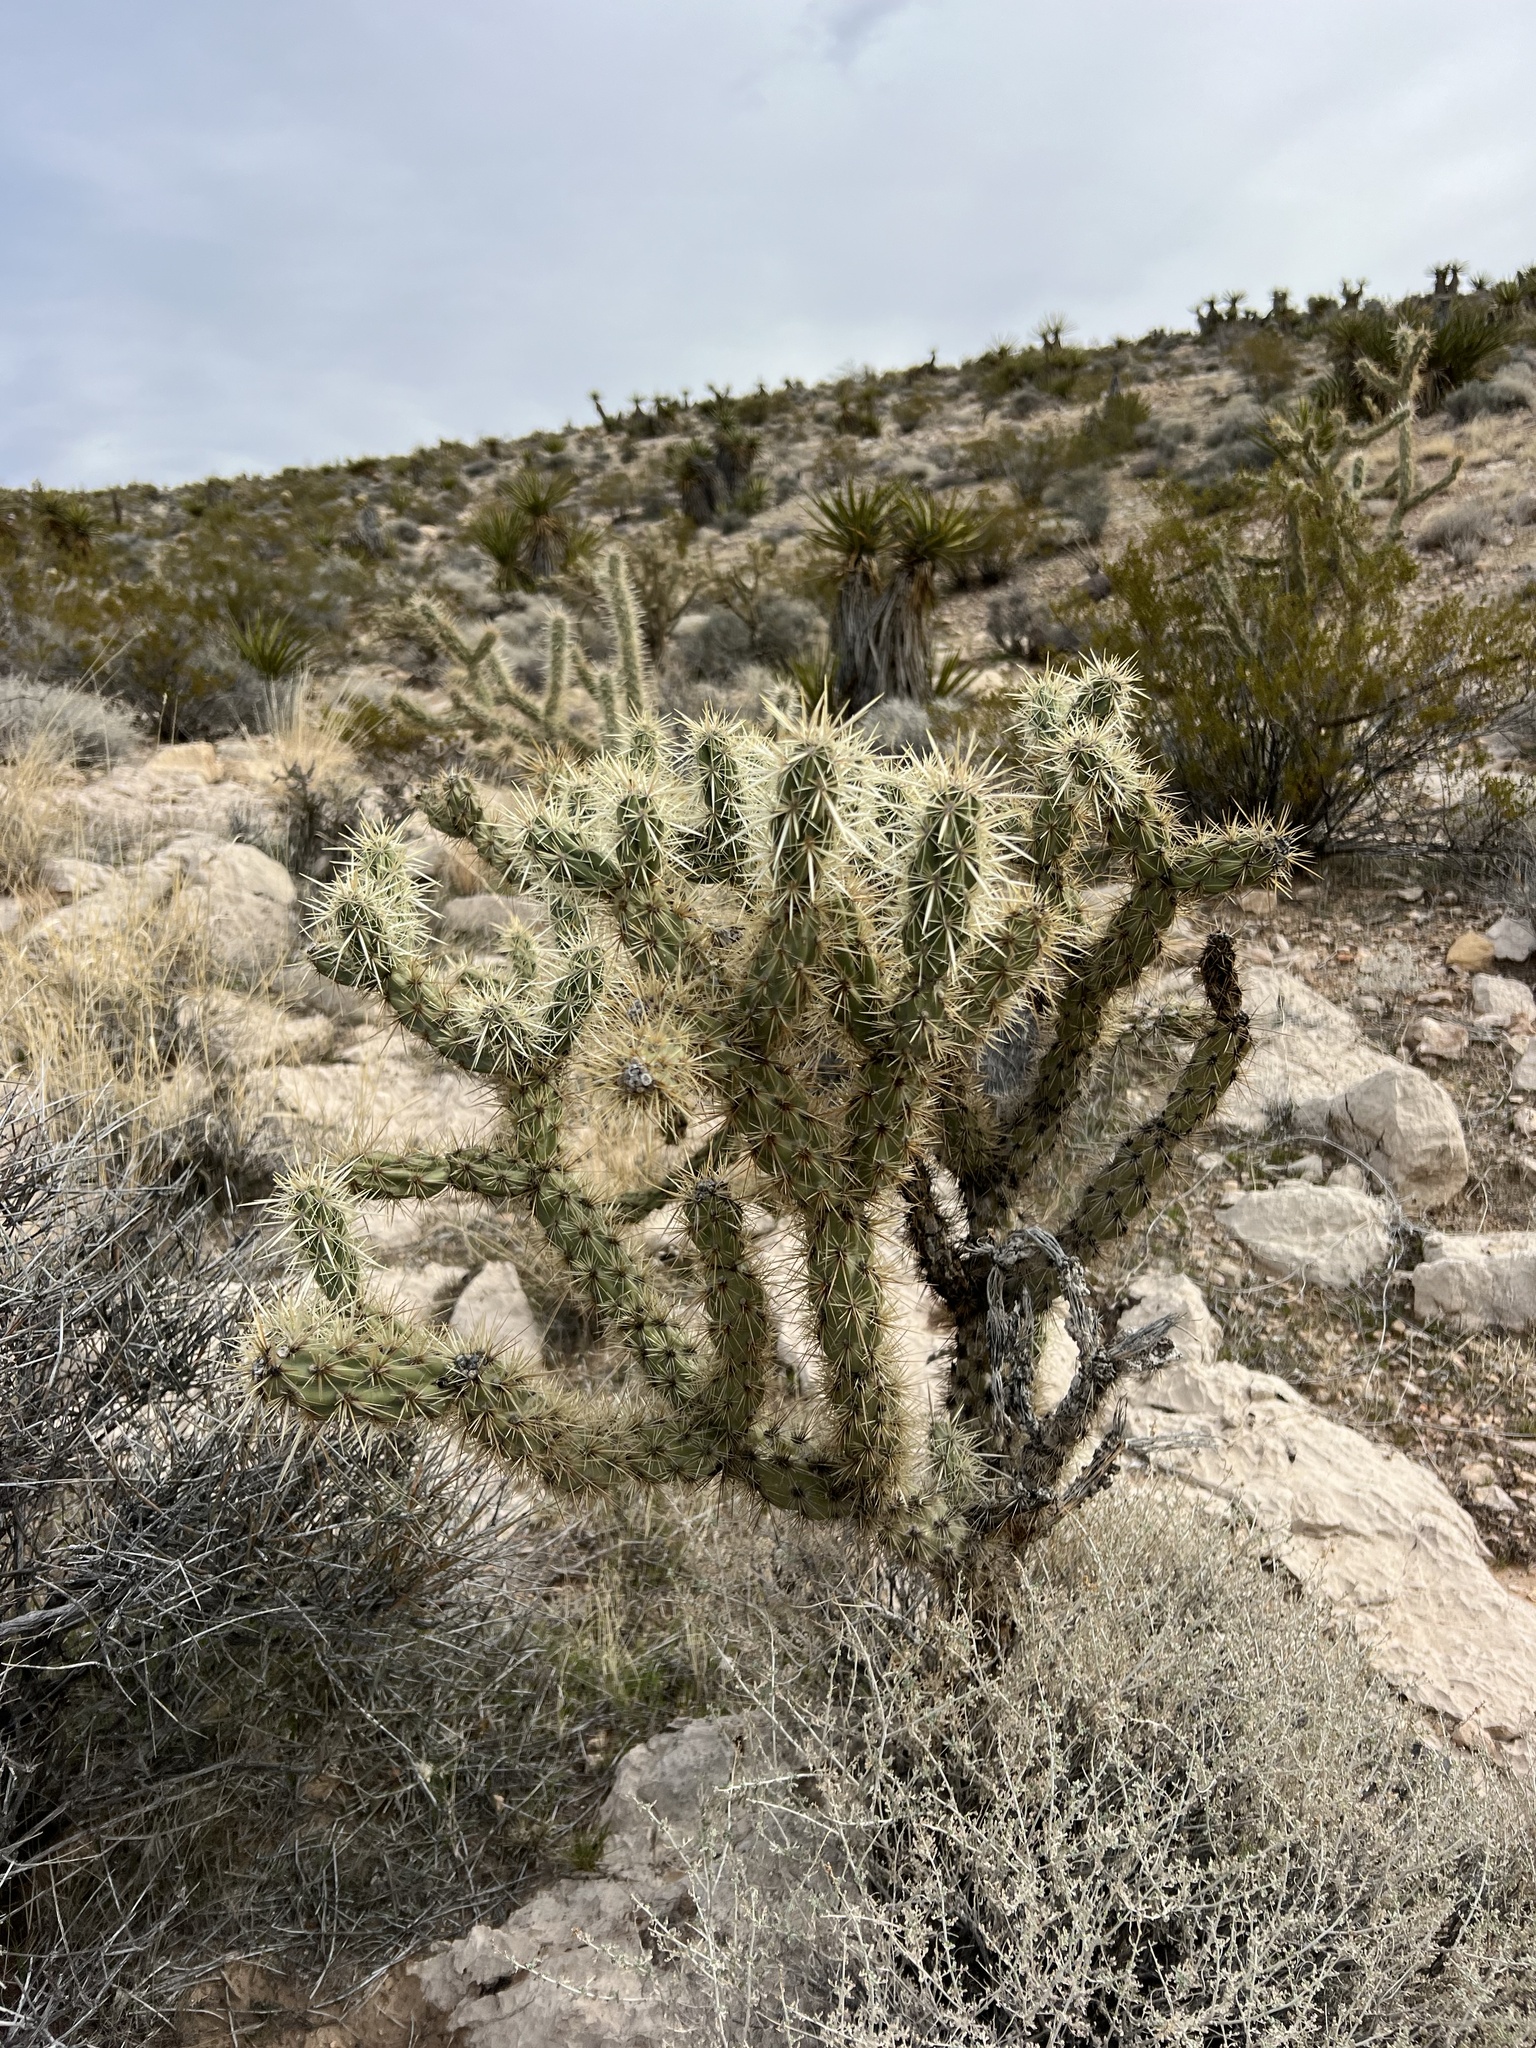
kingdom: Plantae
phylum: Tracheophyta
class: Magnoliopsida
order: Caryophyllales
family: Cactaceae
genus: Cylindropuntia
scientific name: Cylindropuntia acanthocarpa
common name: Buckhorn cholla
